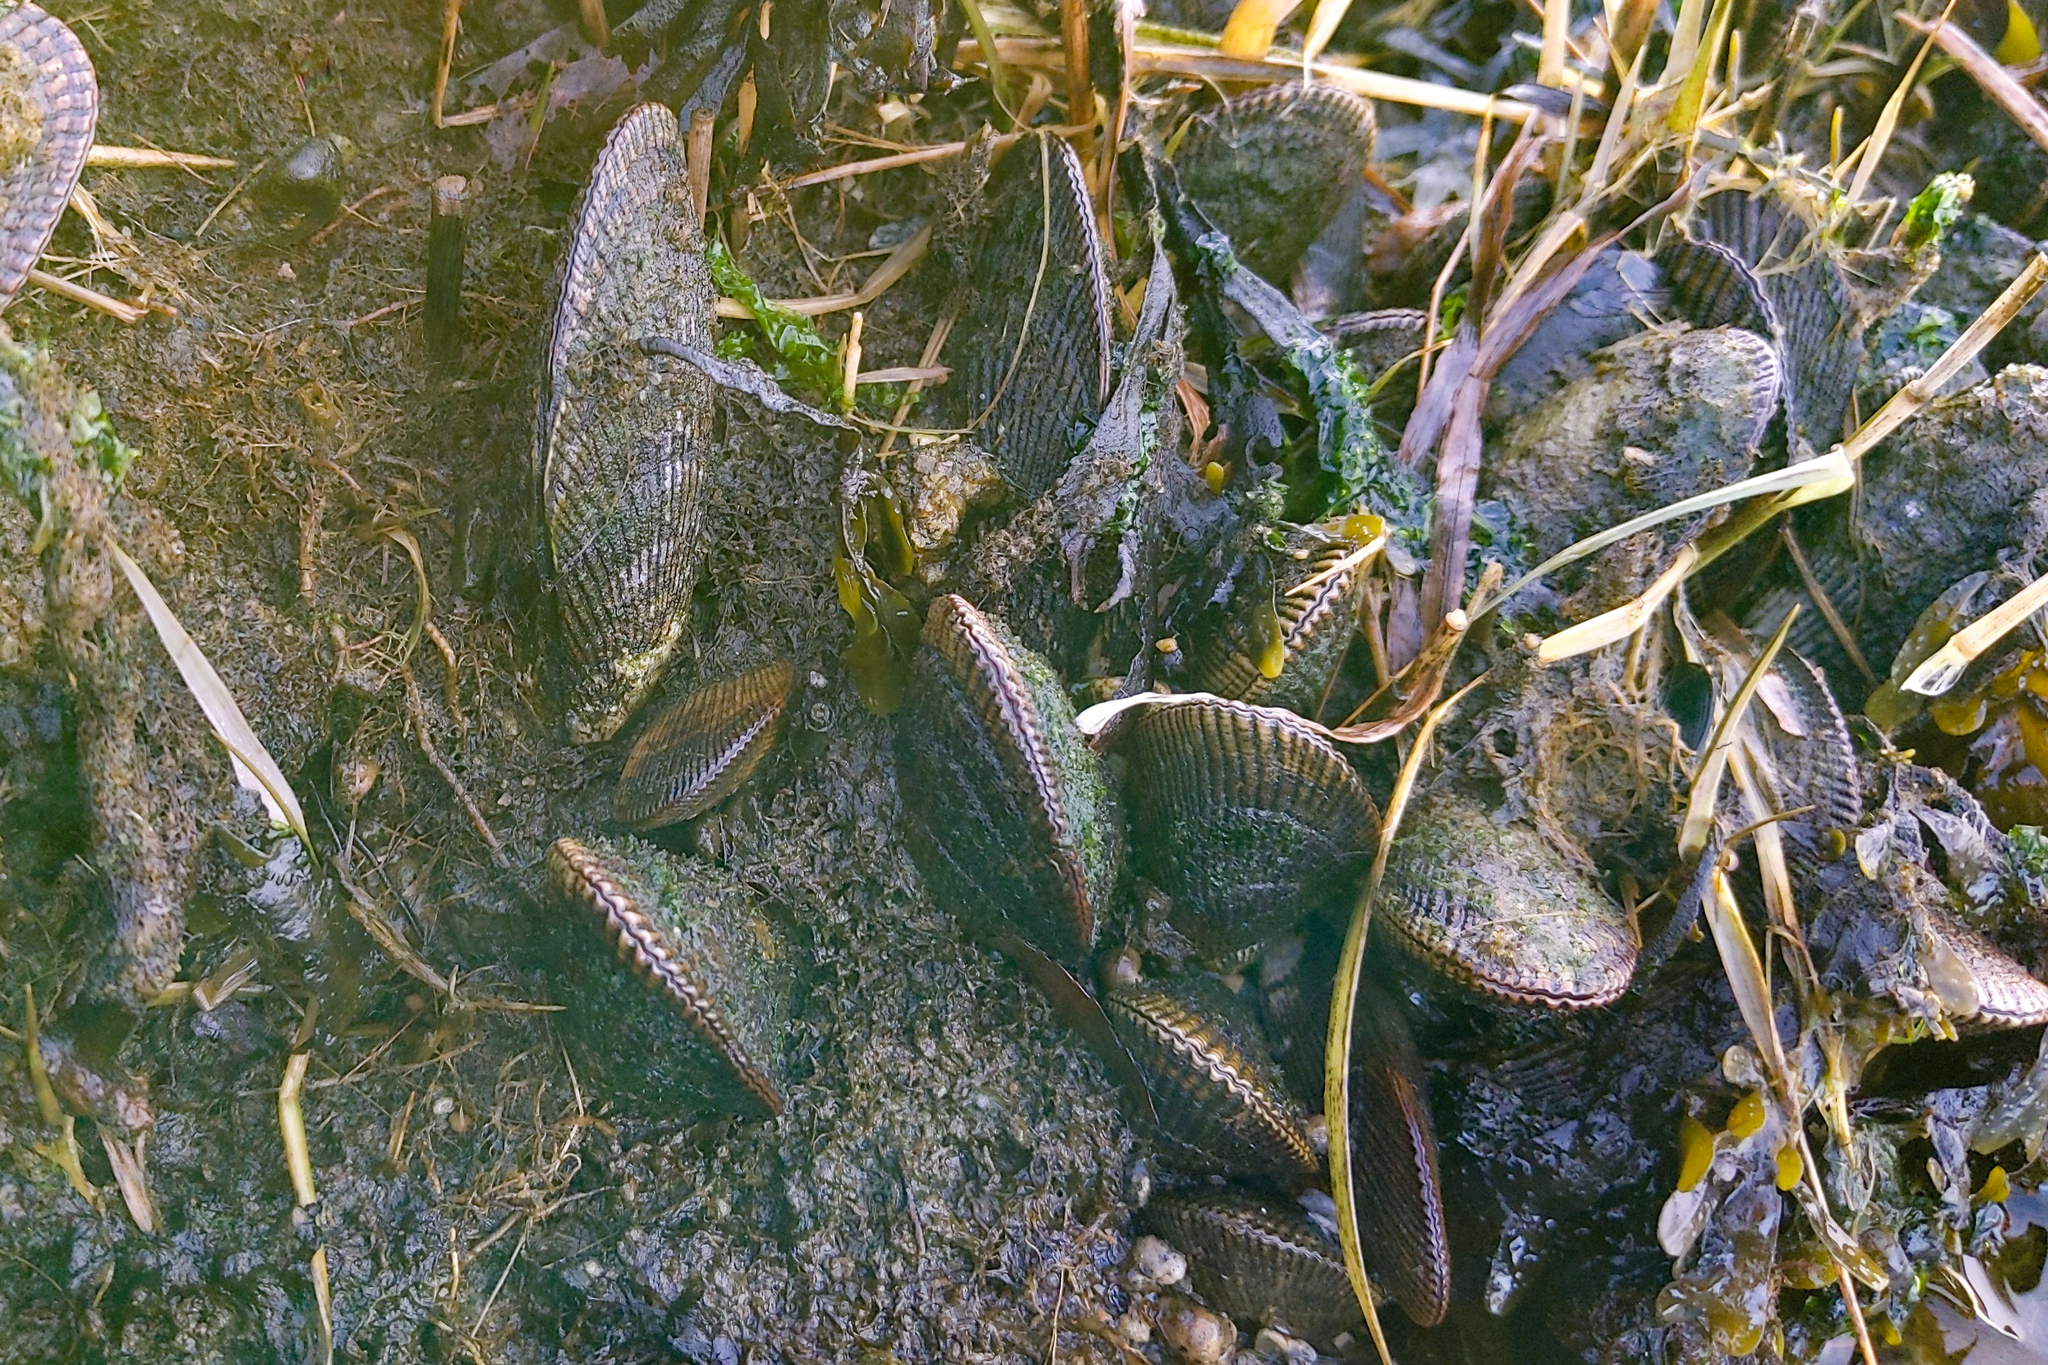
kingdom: Animalia
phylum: Mollusca
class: Bivalvia
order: Mytilida
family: Mytilidae
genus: Geukensia
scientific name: Geukensia demissa
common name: Ribbed mussel
